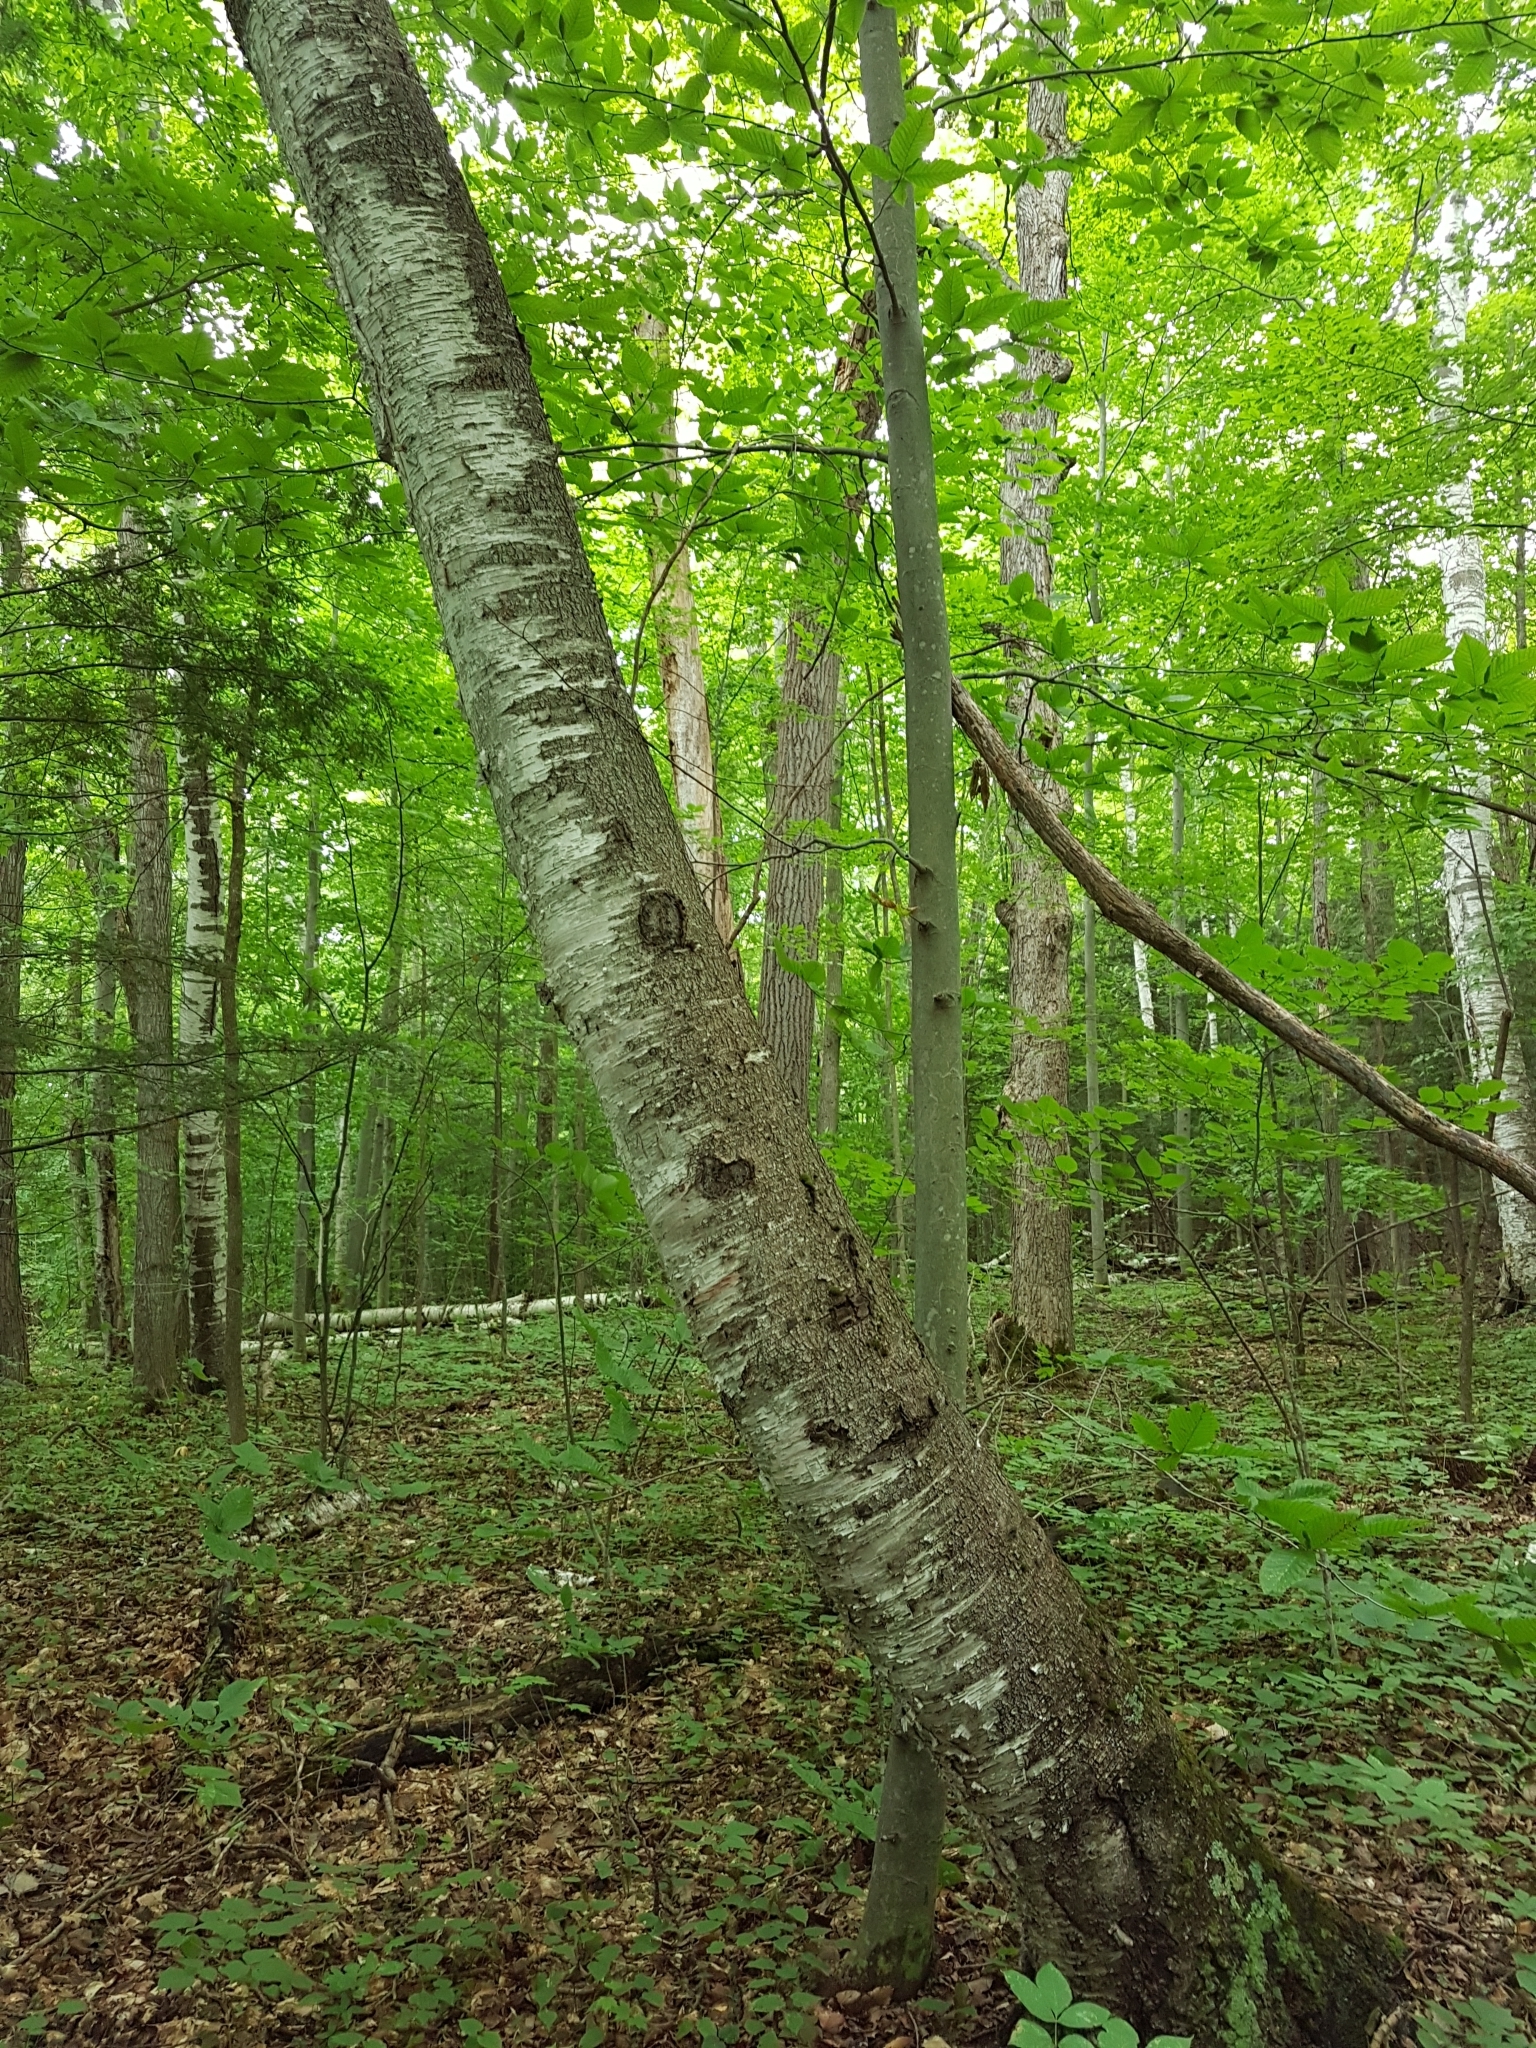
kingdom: Plantae
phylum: Tracheophyta
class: Magnoliopsida
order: Fagales
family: Betulaceae
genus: Betula
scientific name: Betula papyrifera
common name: Paper birch
